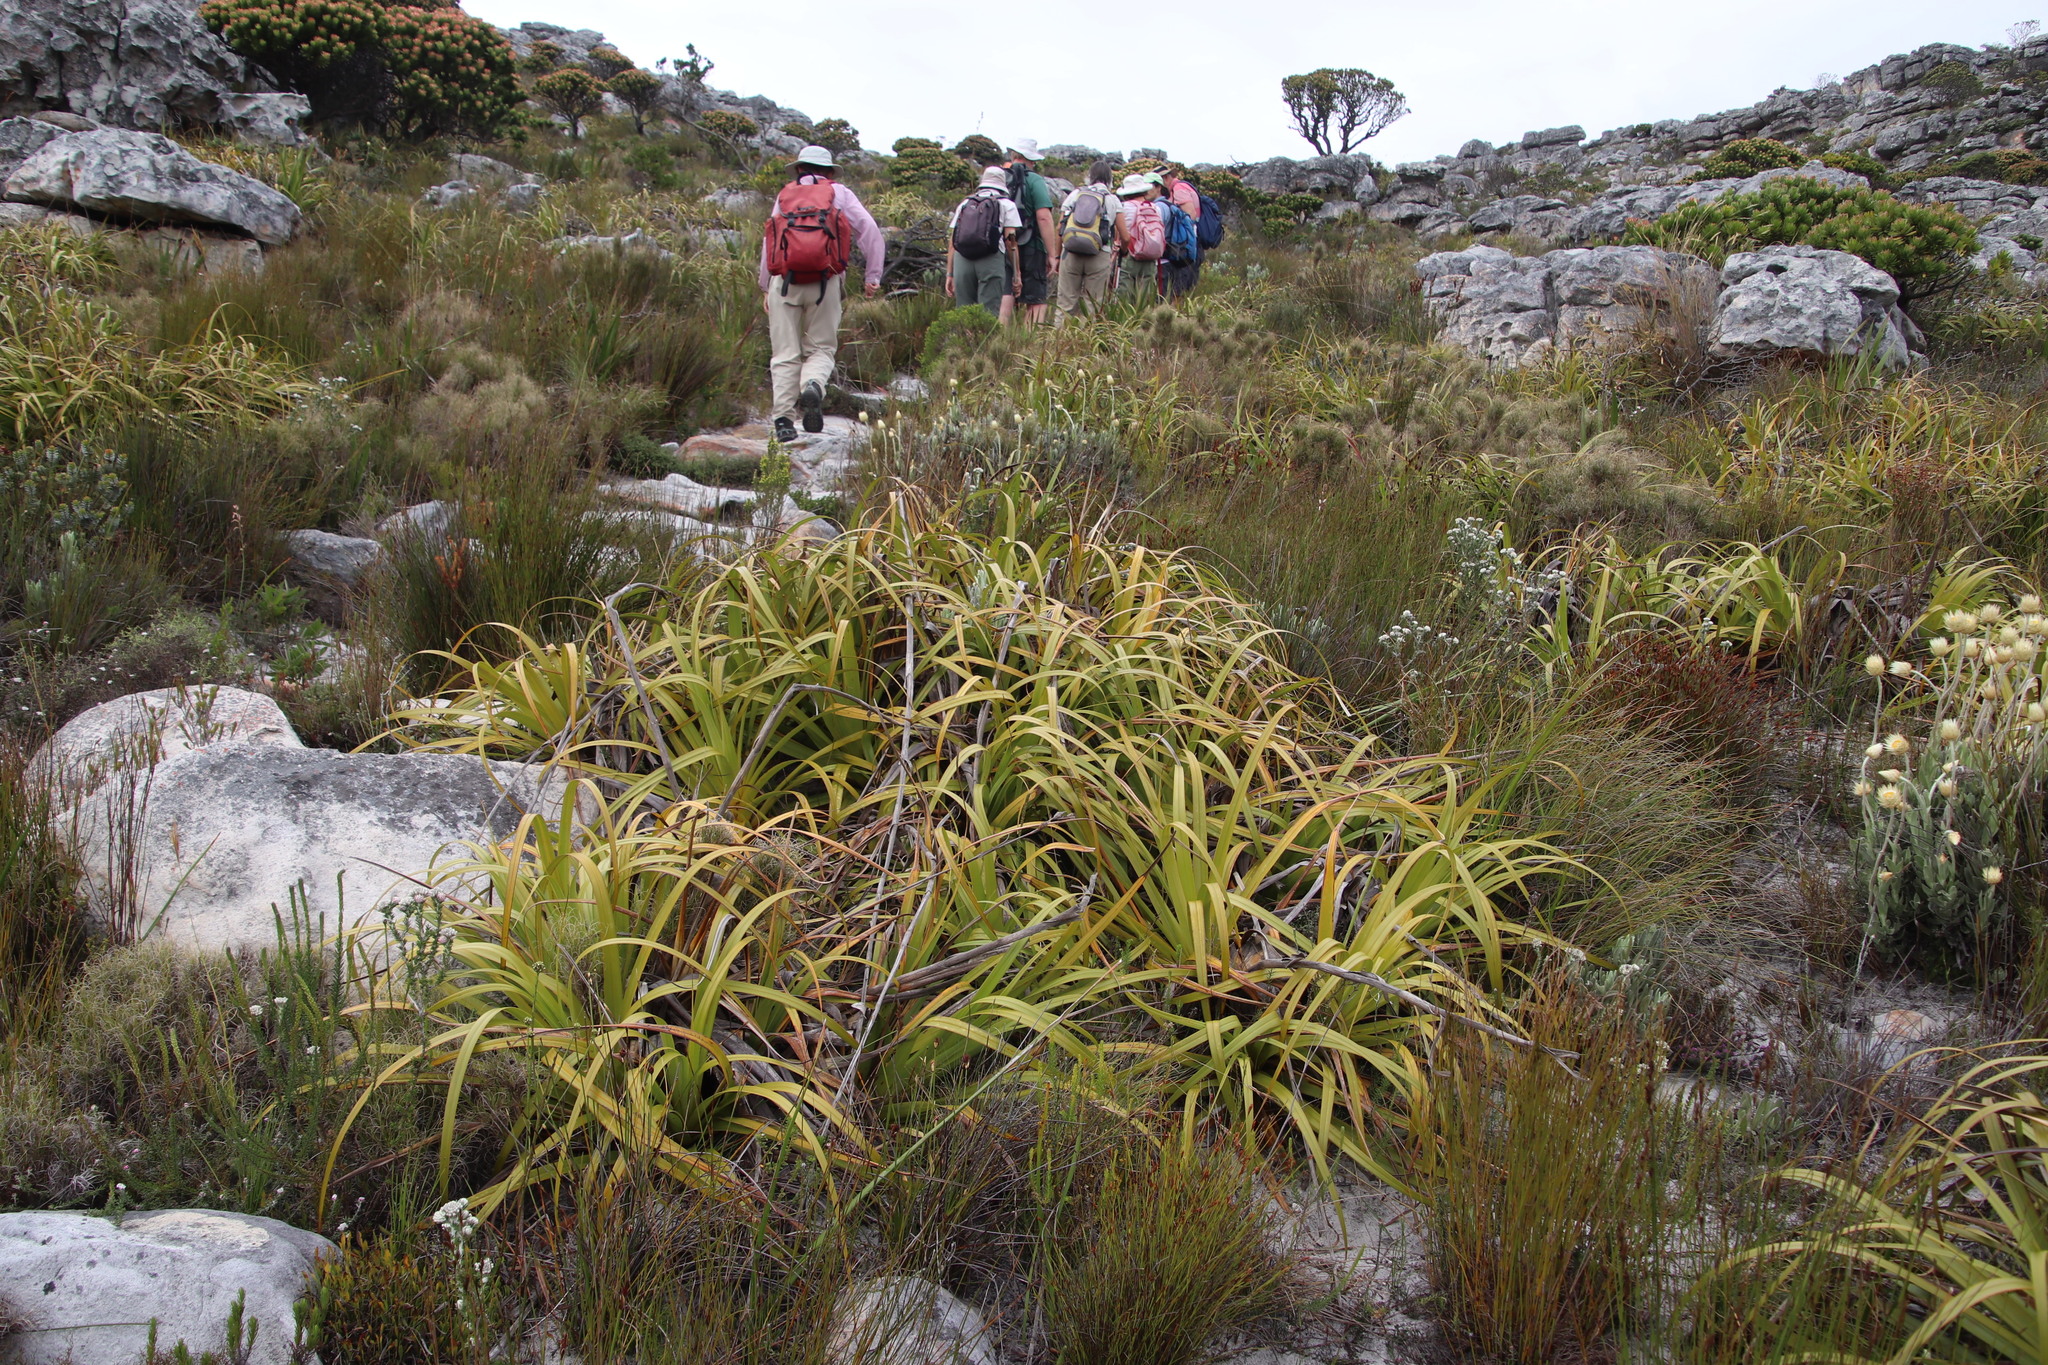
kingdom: Plantae
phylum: Tracheophyta
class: Liliopsida
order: Poales
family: Cyperaceae
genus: Tetraria
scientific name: Tetraria thermalis
